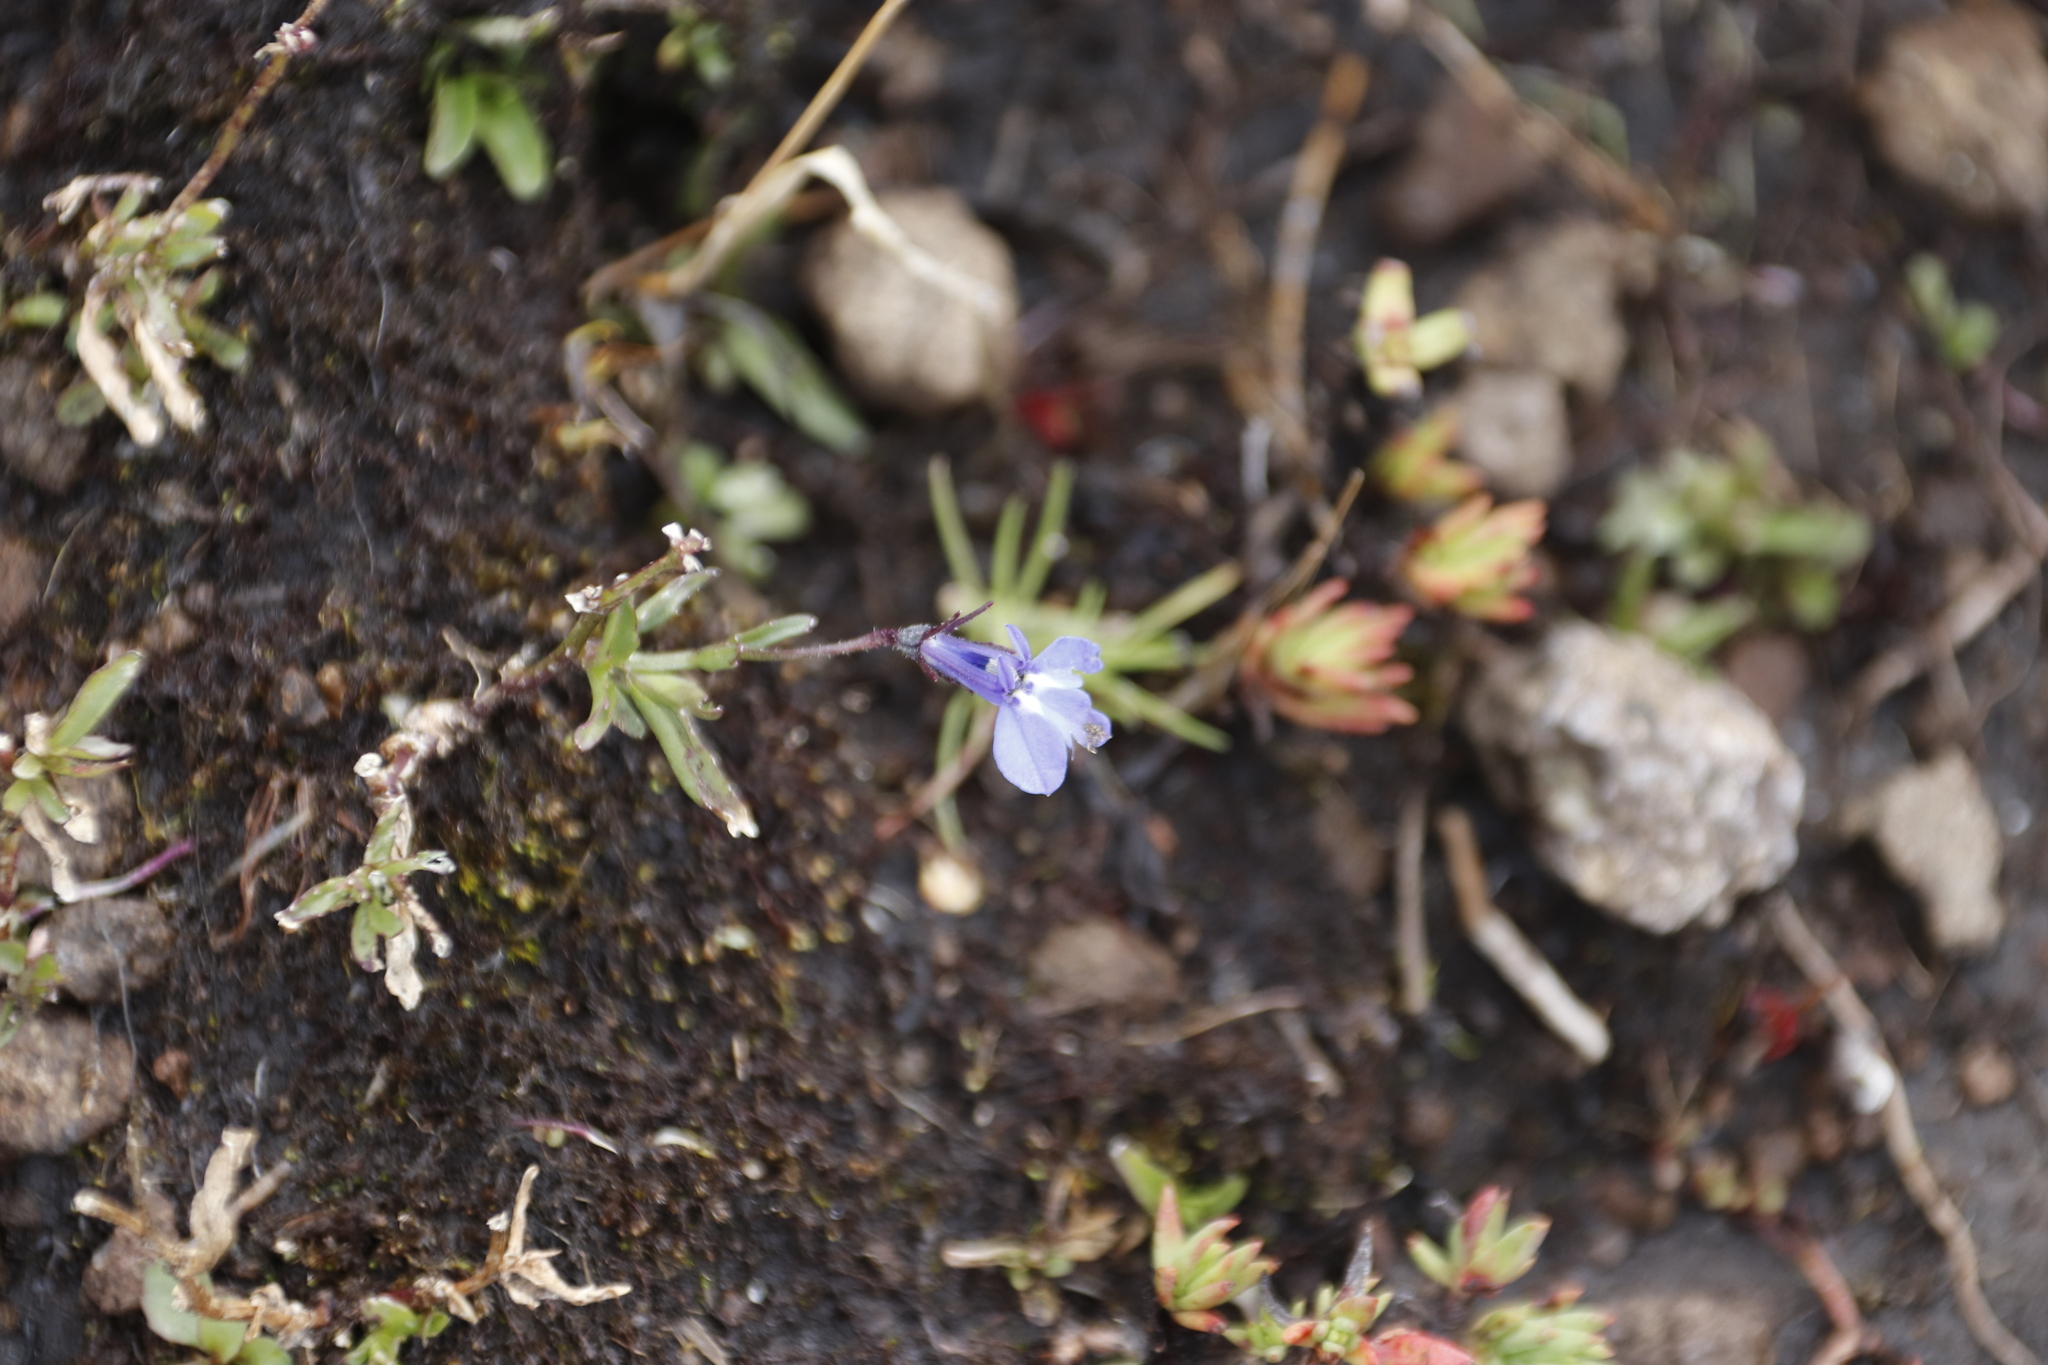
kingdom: Plantae
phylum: Tracheophyta
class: Magnoliopsida
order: Asterales
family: Campanulaceae
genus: Lobelia
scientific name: Lobelia flaccida
